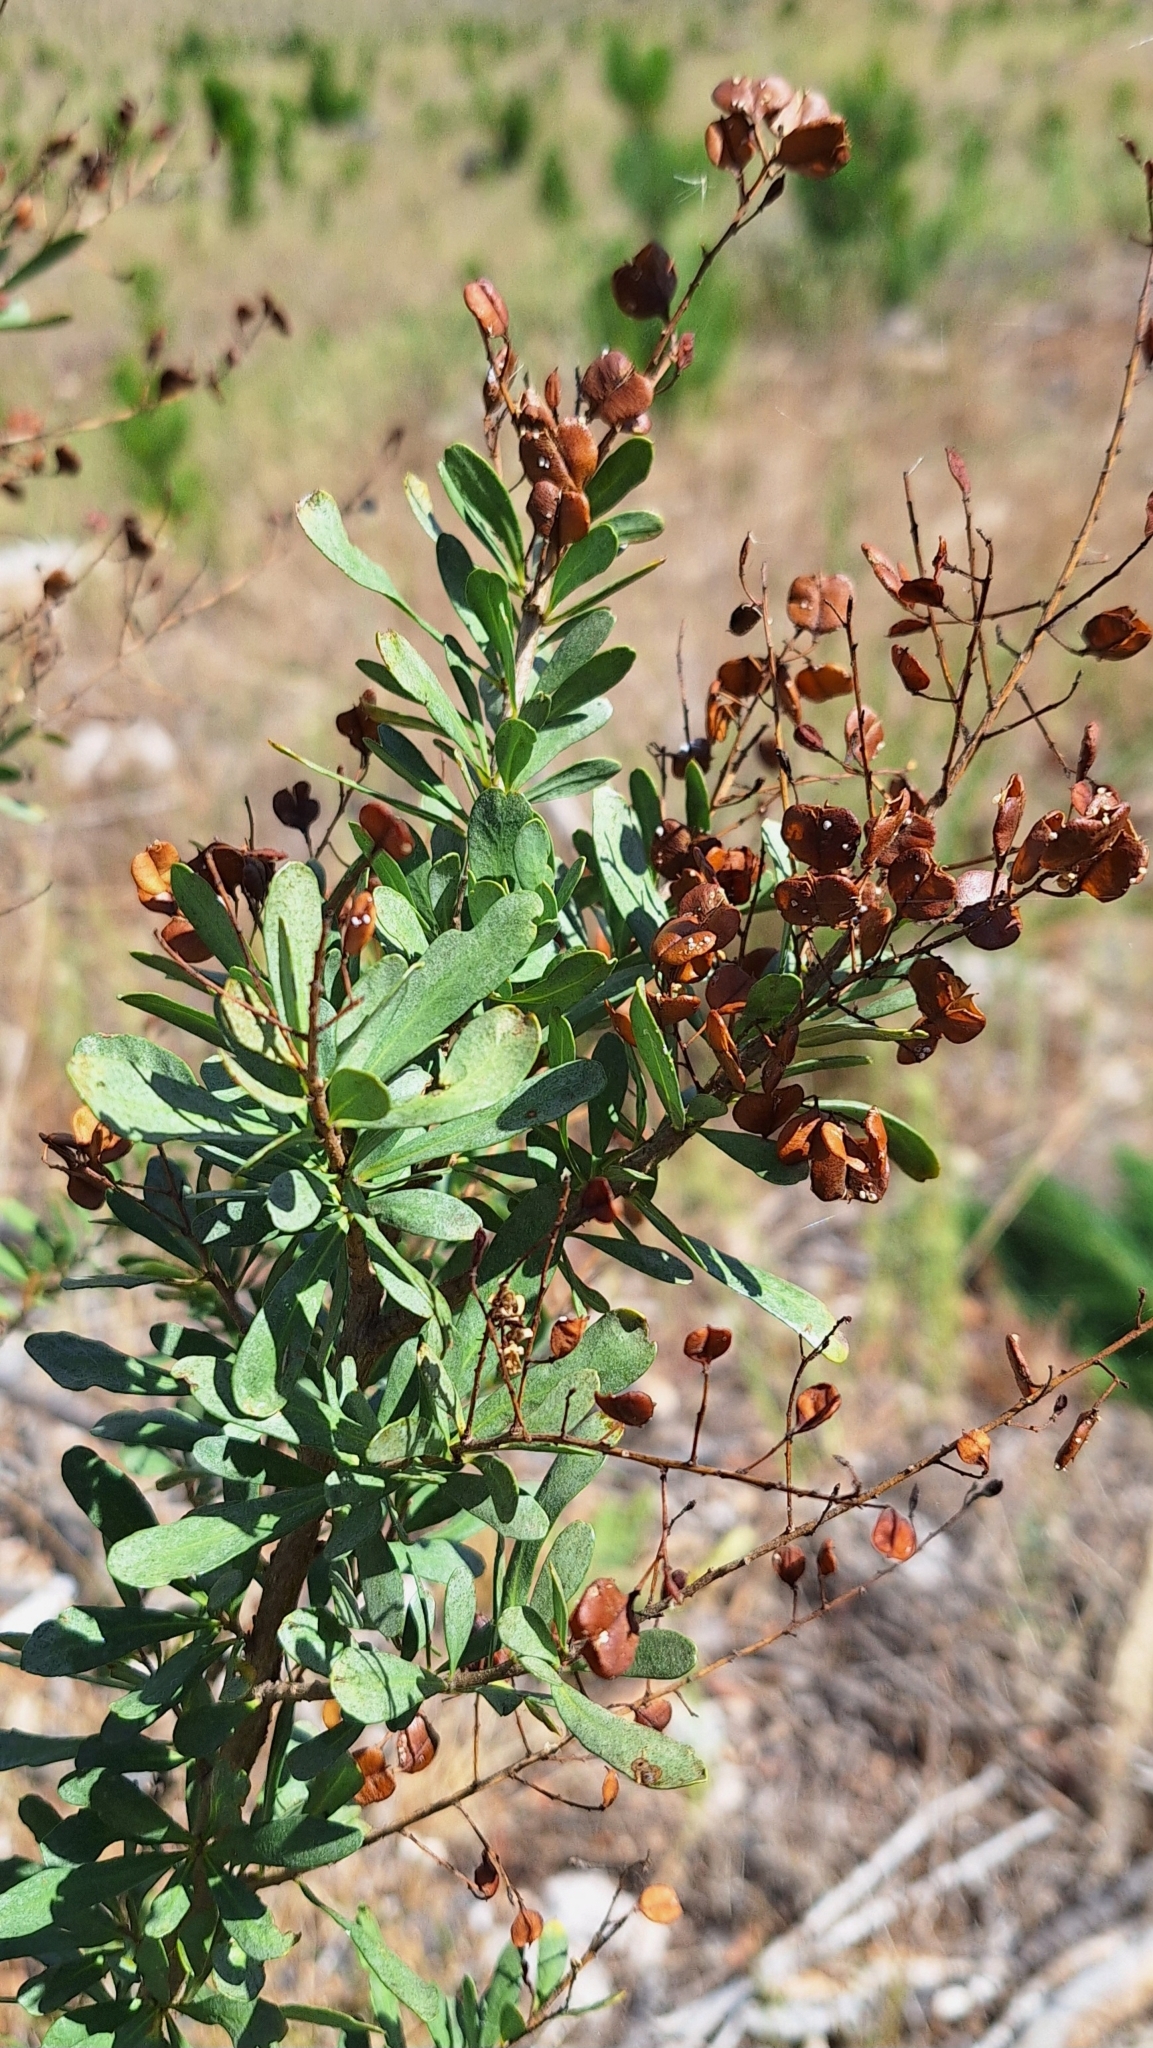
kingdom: Plantae
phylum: Tracheophyta
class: Magnoliopsida
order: Apiales
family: Pittosporaceae
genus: Bursaria
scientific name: Bursaria spinosa
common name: Australian blackthorn
